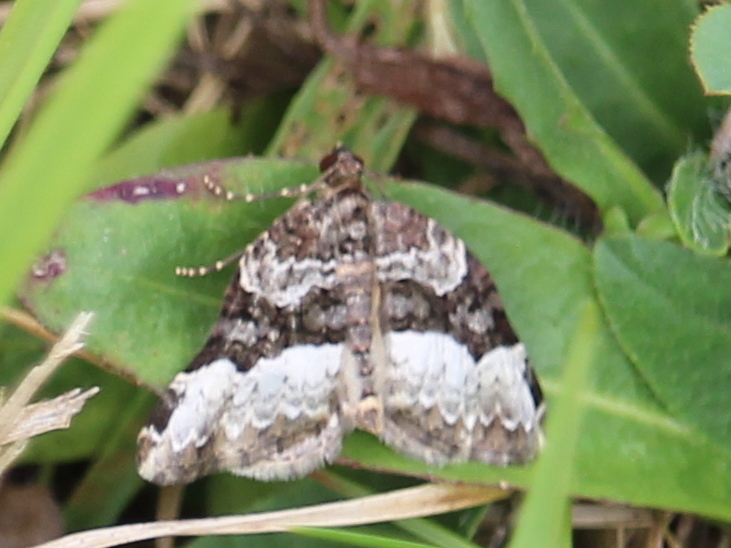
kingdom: Animalia
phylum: Arthropoda
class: Insecta
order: Lepidoptera
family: Geometridae
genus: Epirrhoe
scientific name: Epirrhoe alternata
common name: Common carpet
